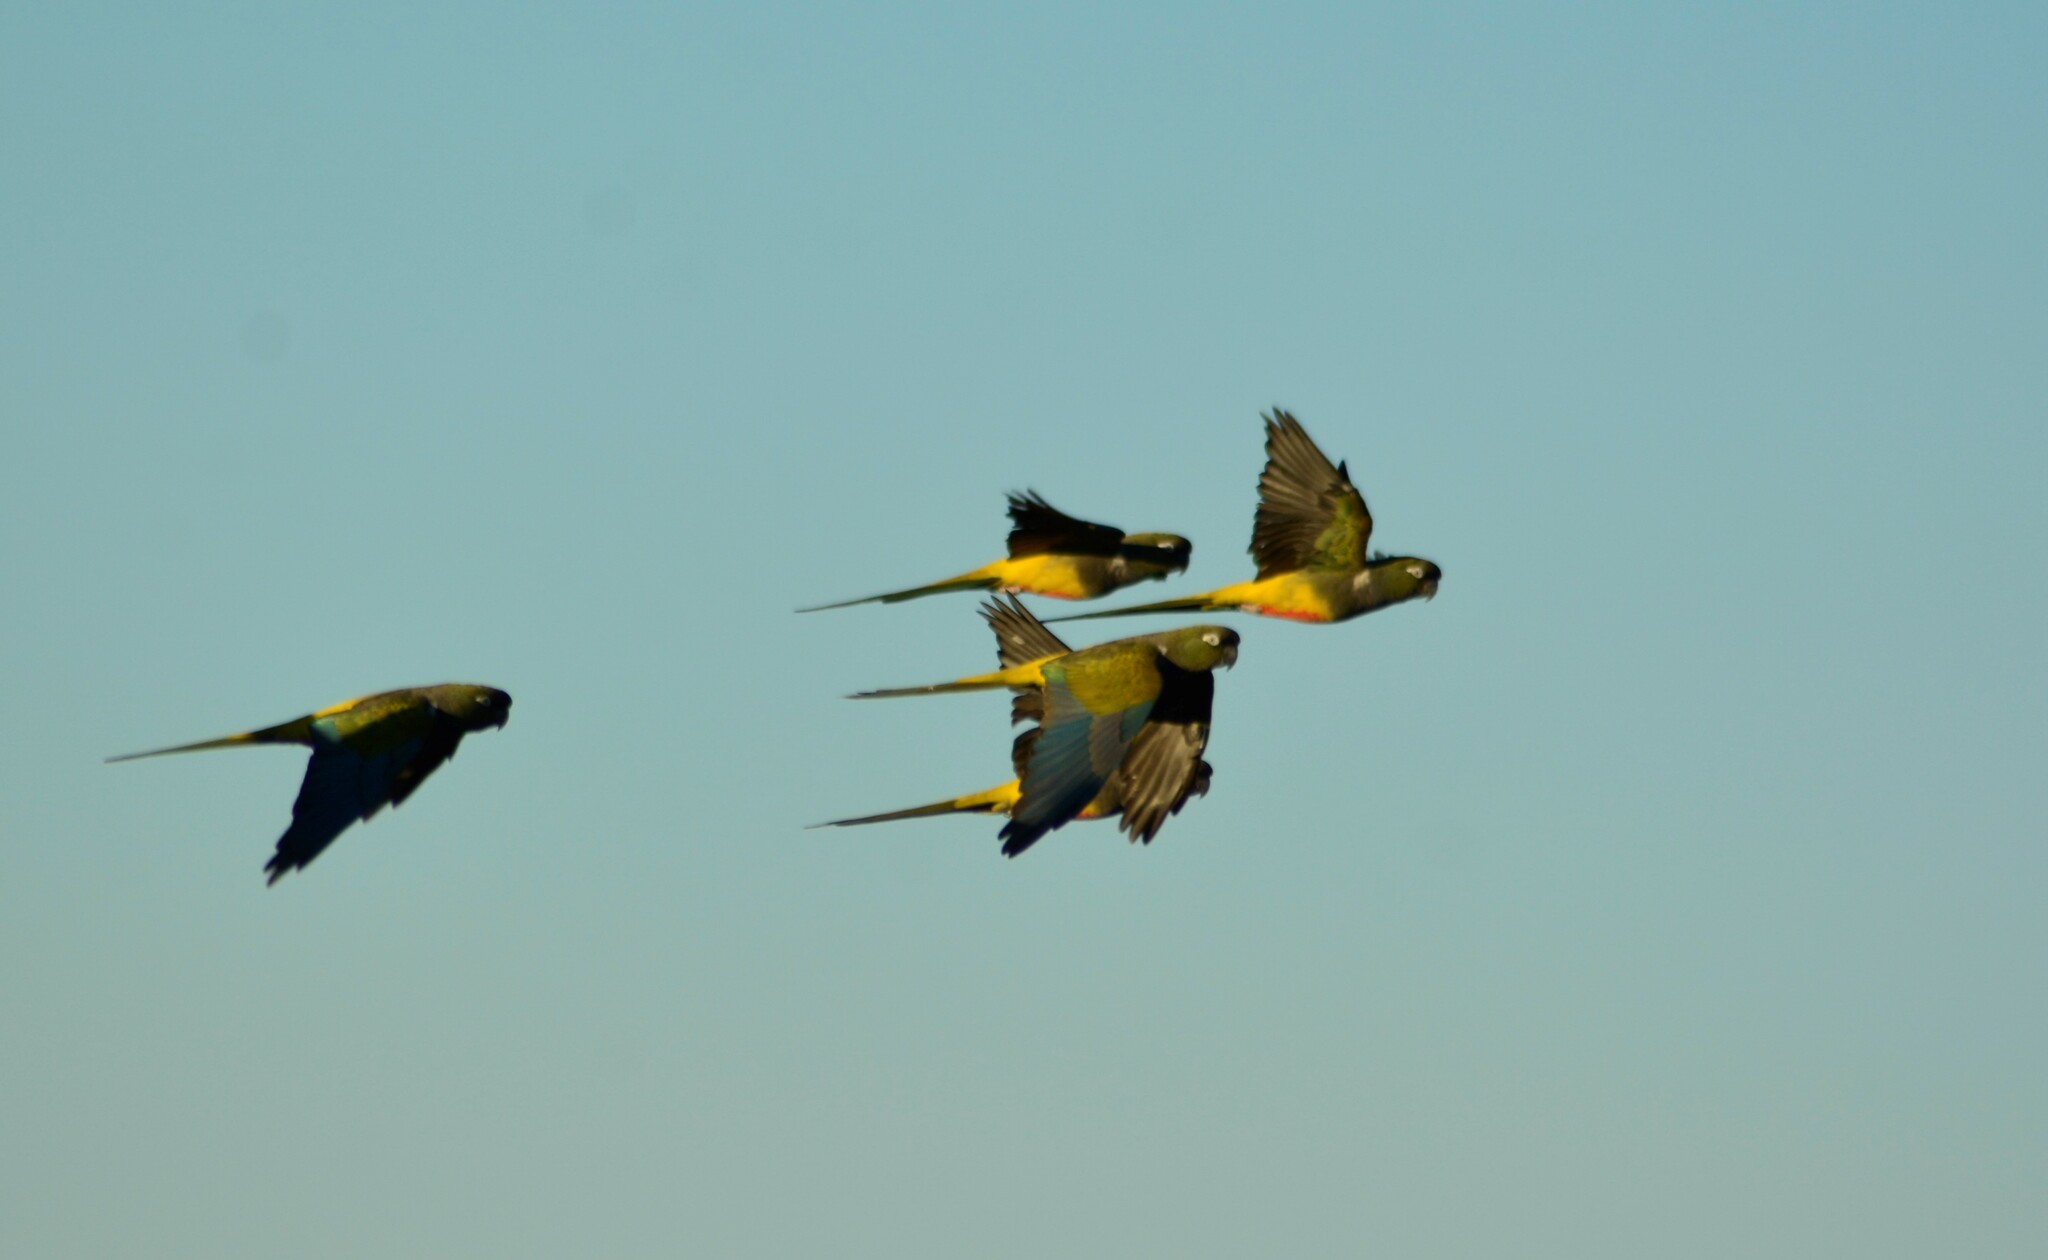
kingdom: Animalia
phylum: Chordata
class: Aves
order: Psittaciformes
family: Psittacidae
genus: Cyanoliseus
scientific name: Cyanoliseus patagonus
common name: Burrowing parrot
